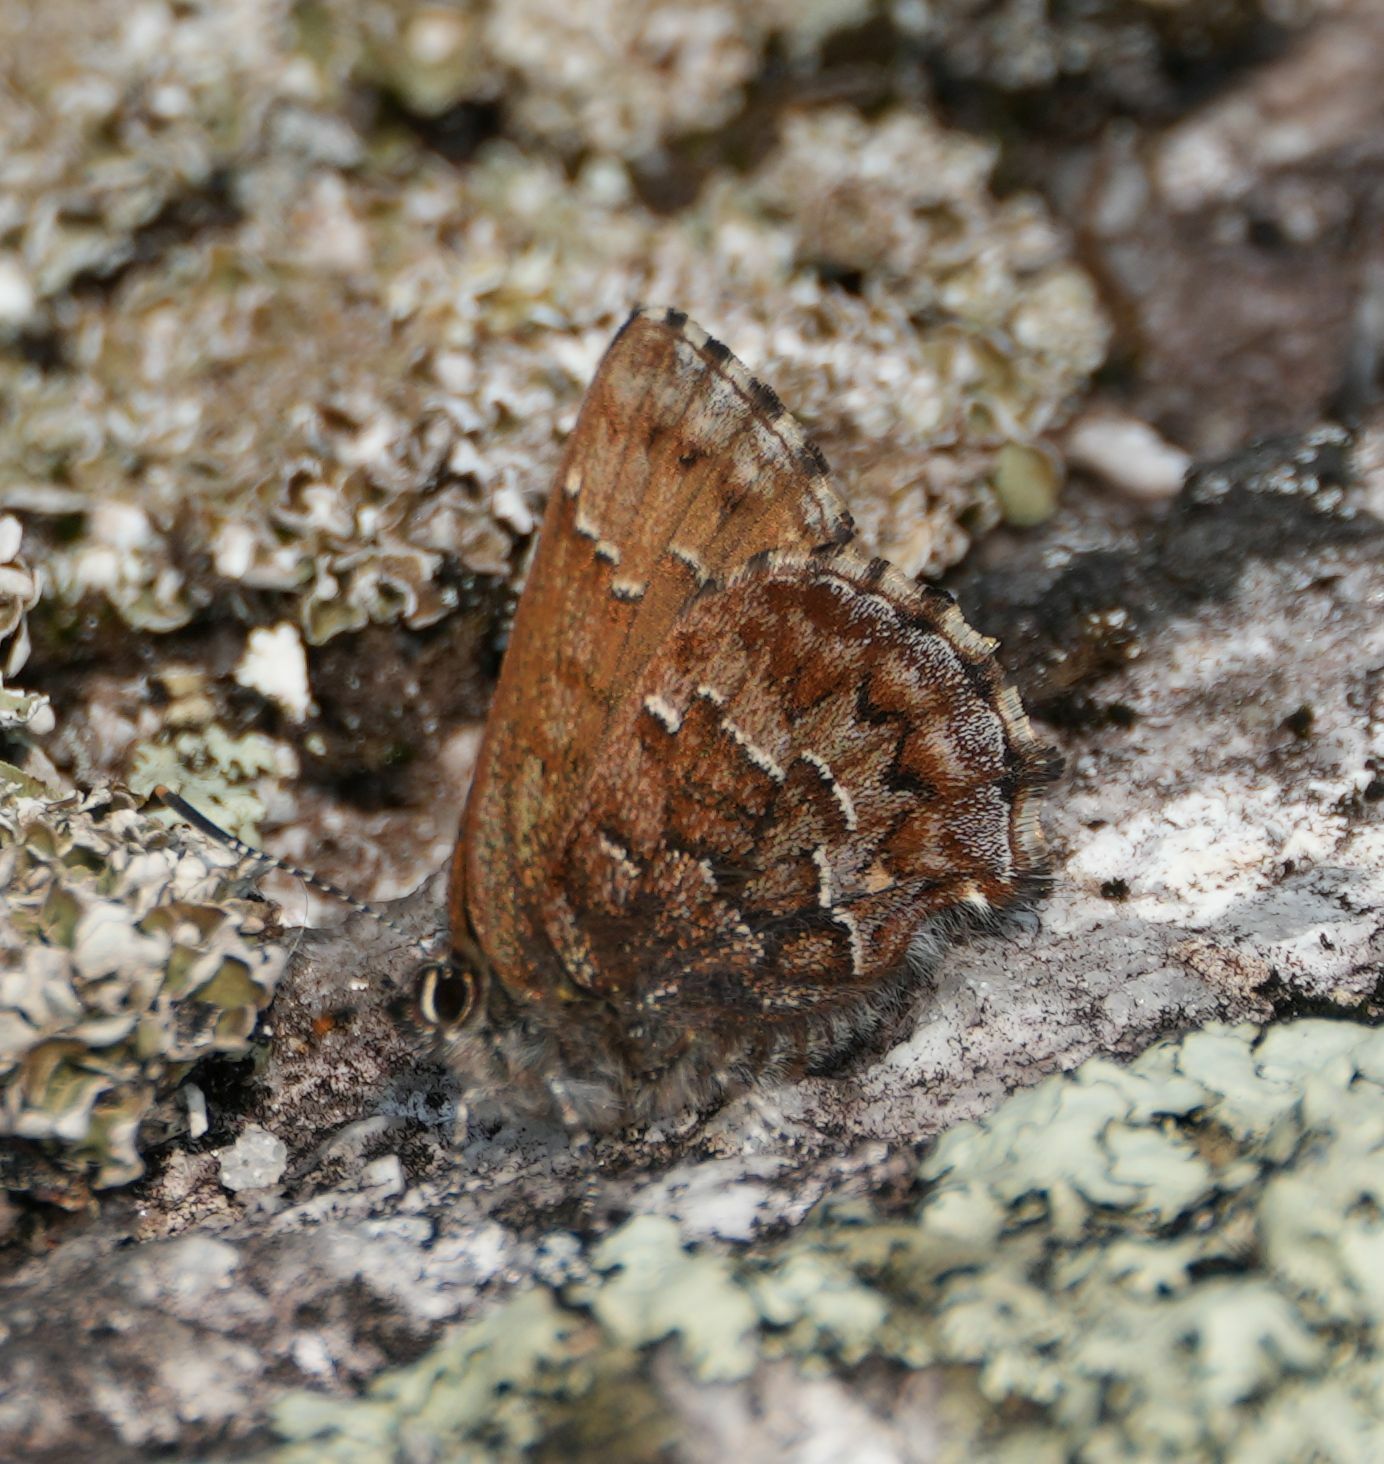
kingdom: Animalia
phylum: Arthropoda
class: Insecta
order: Lepidoptera
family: Lycaenidae
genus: Incisalia
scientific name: Incisalia niphon
